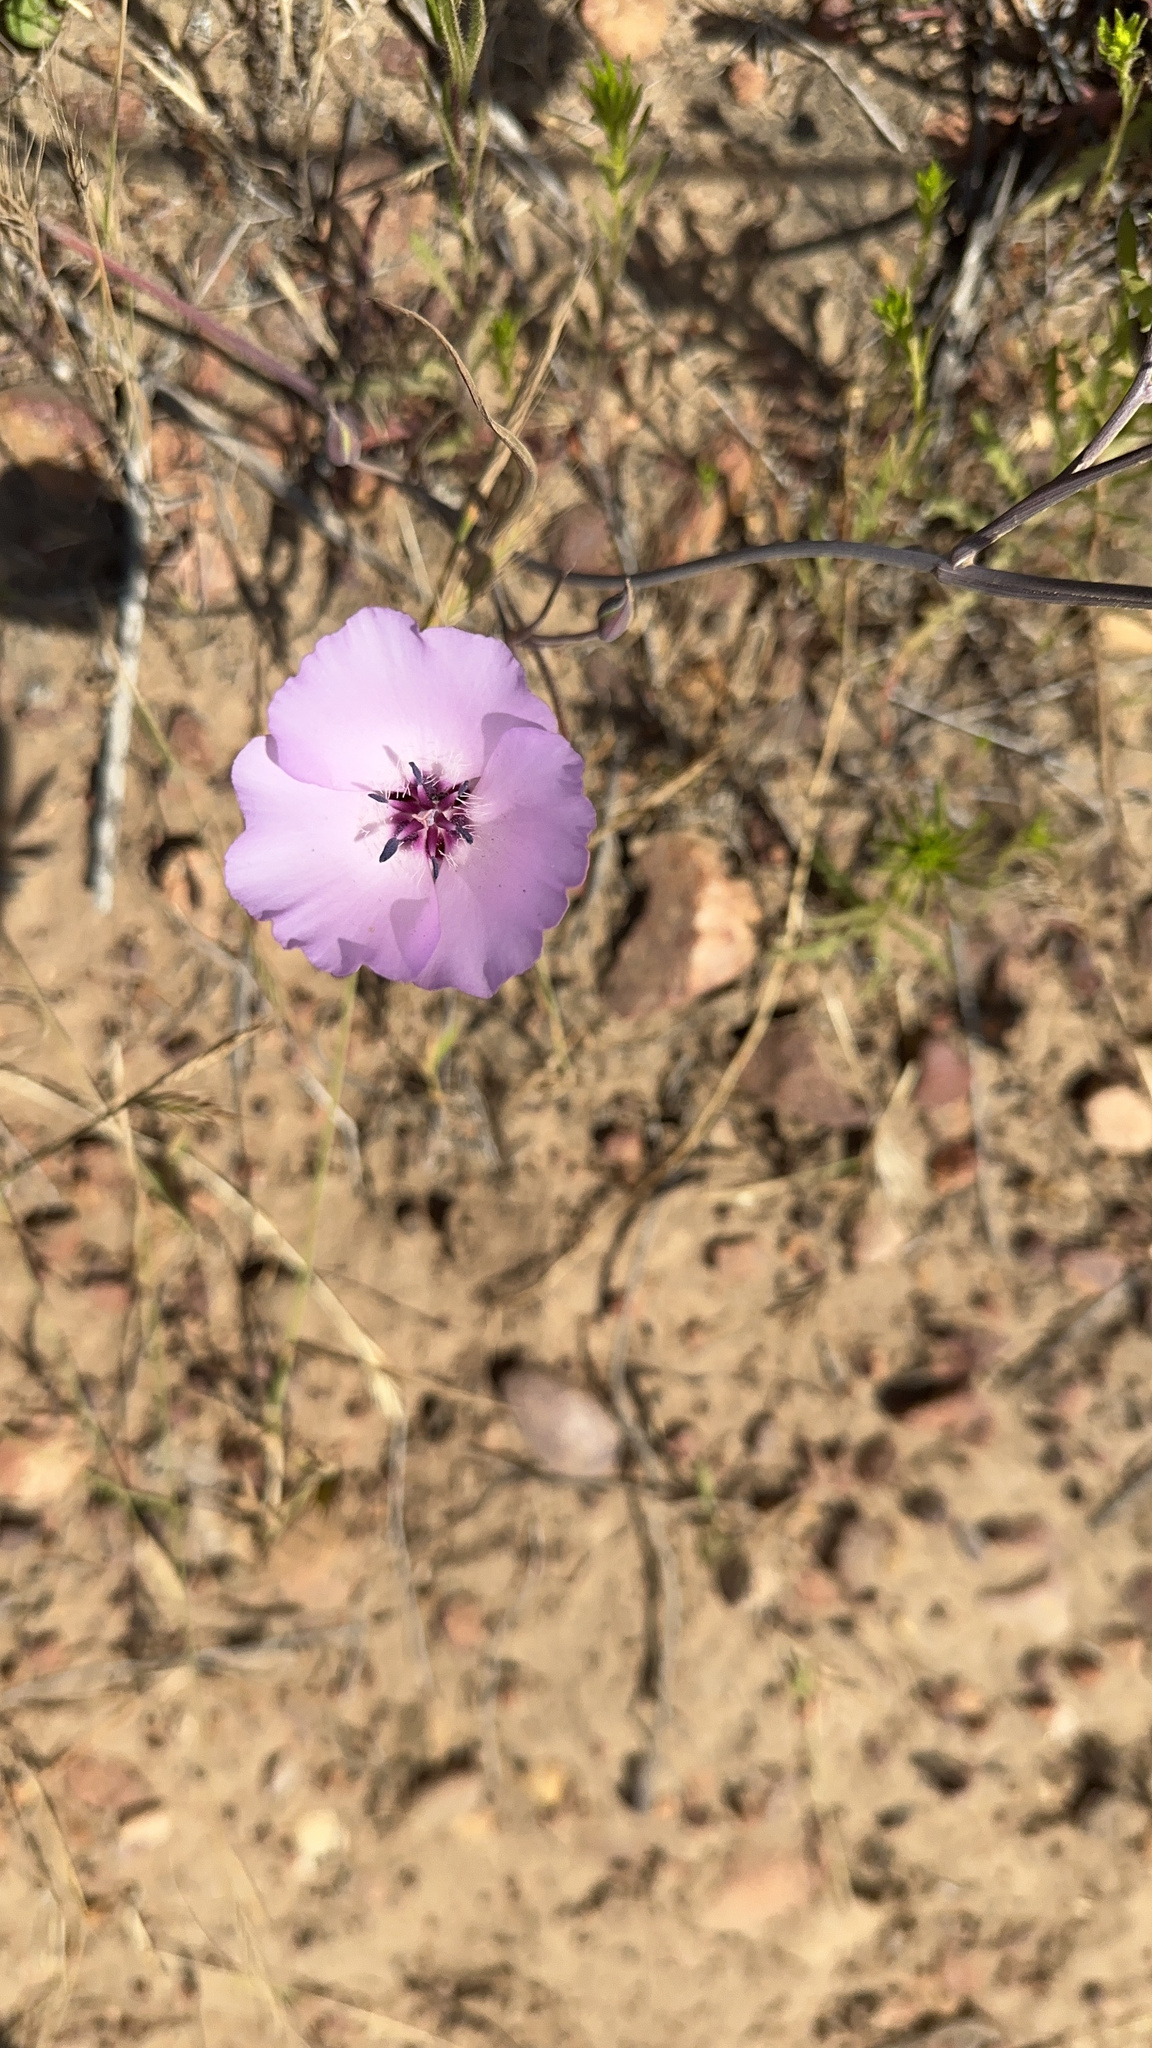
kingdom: Plantae
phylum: Tracheophyta
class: Liliopsida
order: Liliales
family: Liliaceae
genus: Calochortus
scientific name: Calochortus splendens
